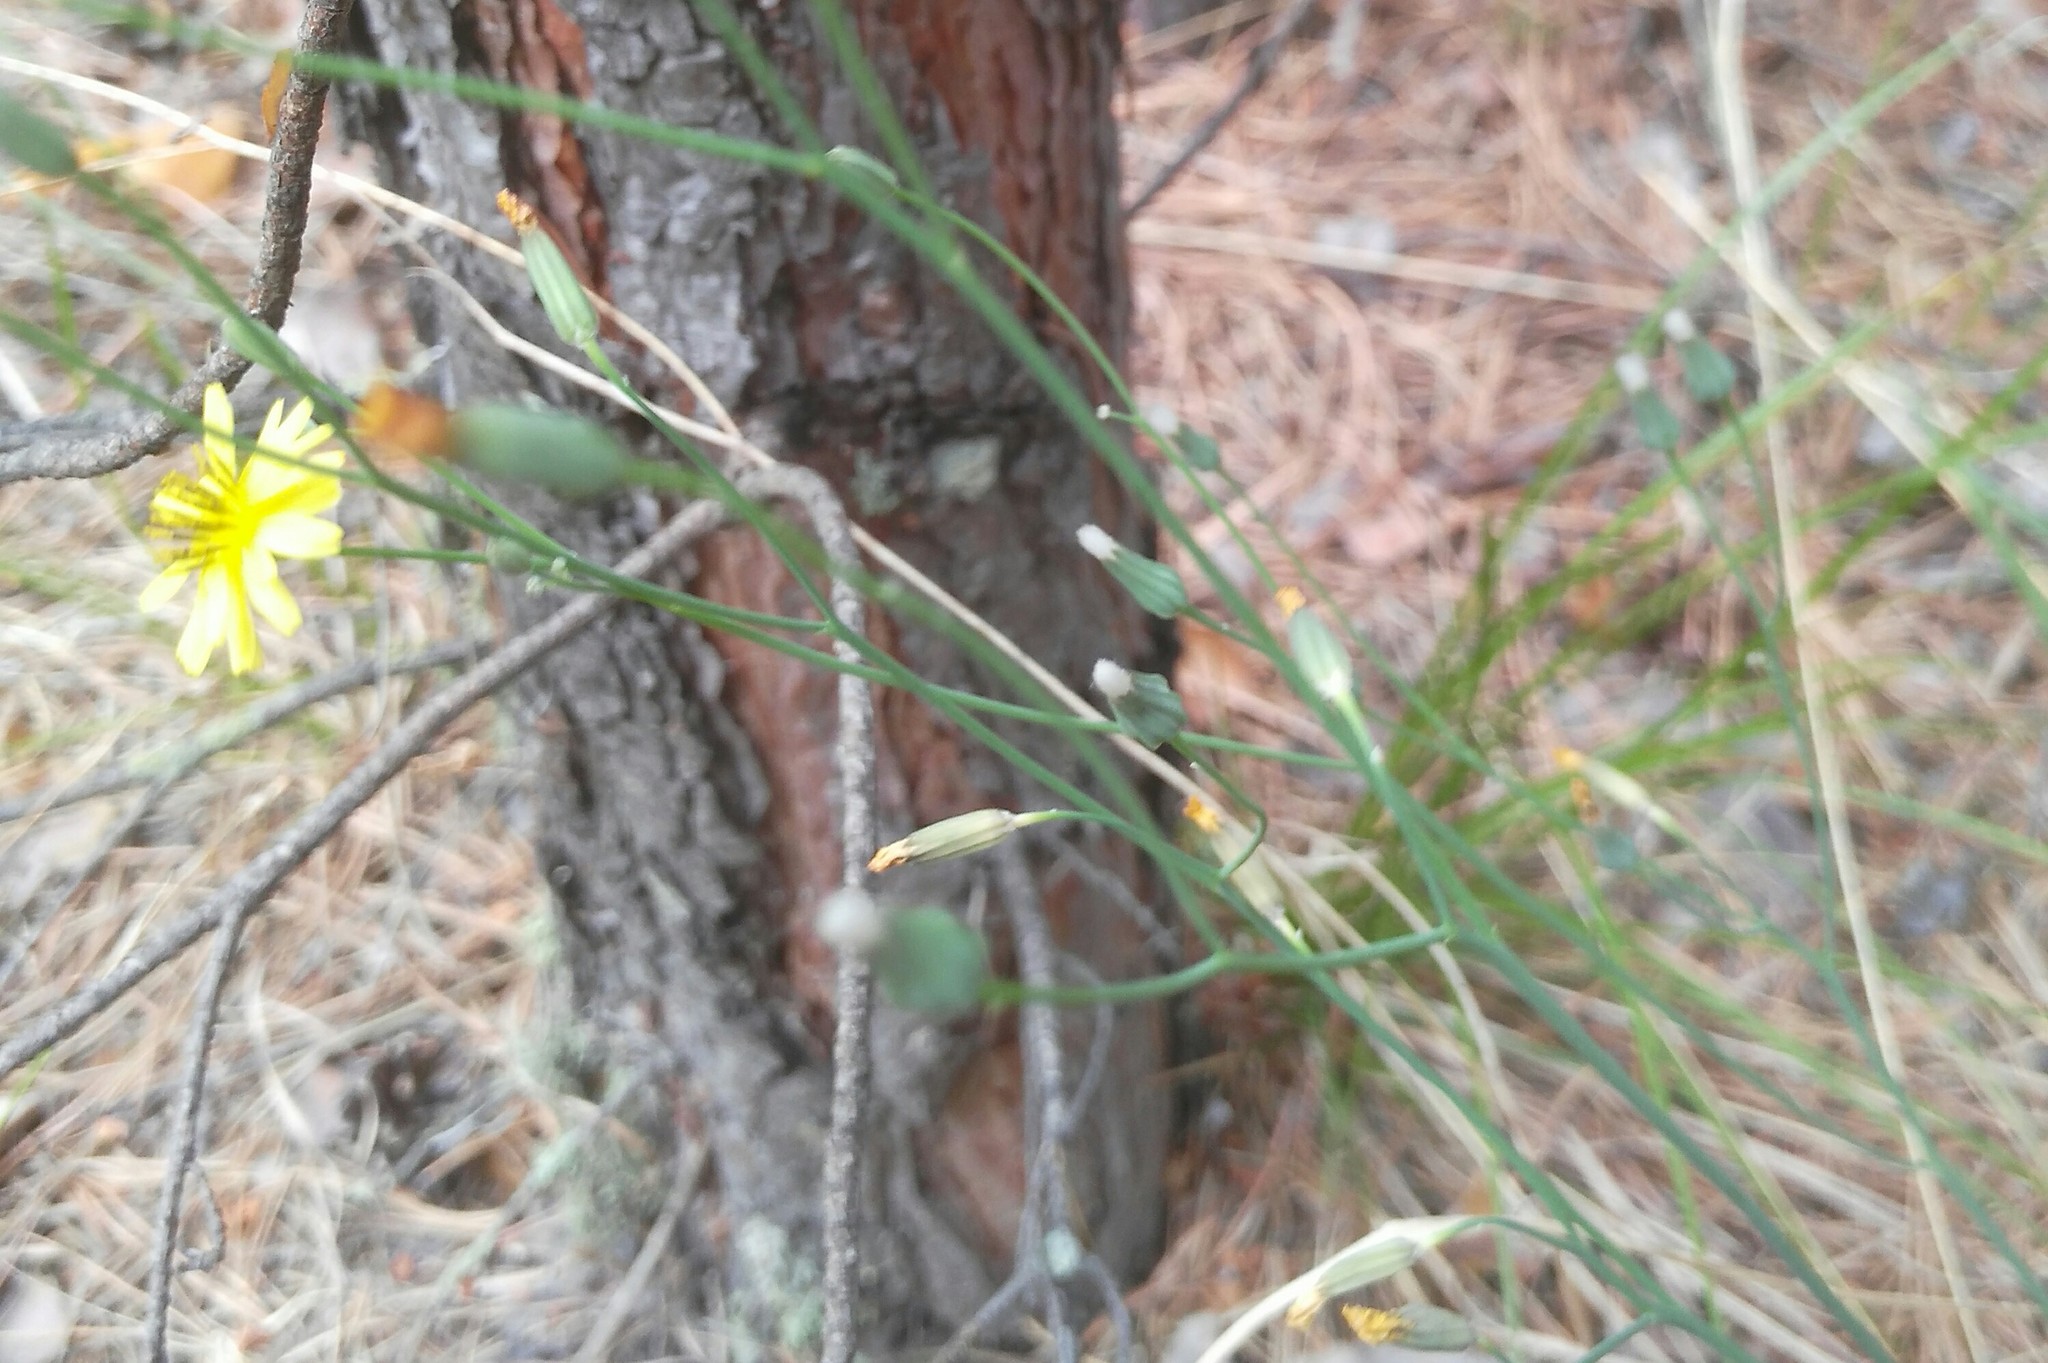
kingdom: Plantae
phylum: Tracheophyta
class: Magnoliopsida
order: Asterales
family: Asteraceae
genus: Ixeris
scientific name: Ixeris chinensis
